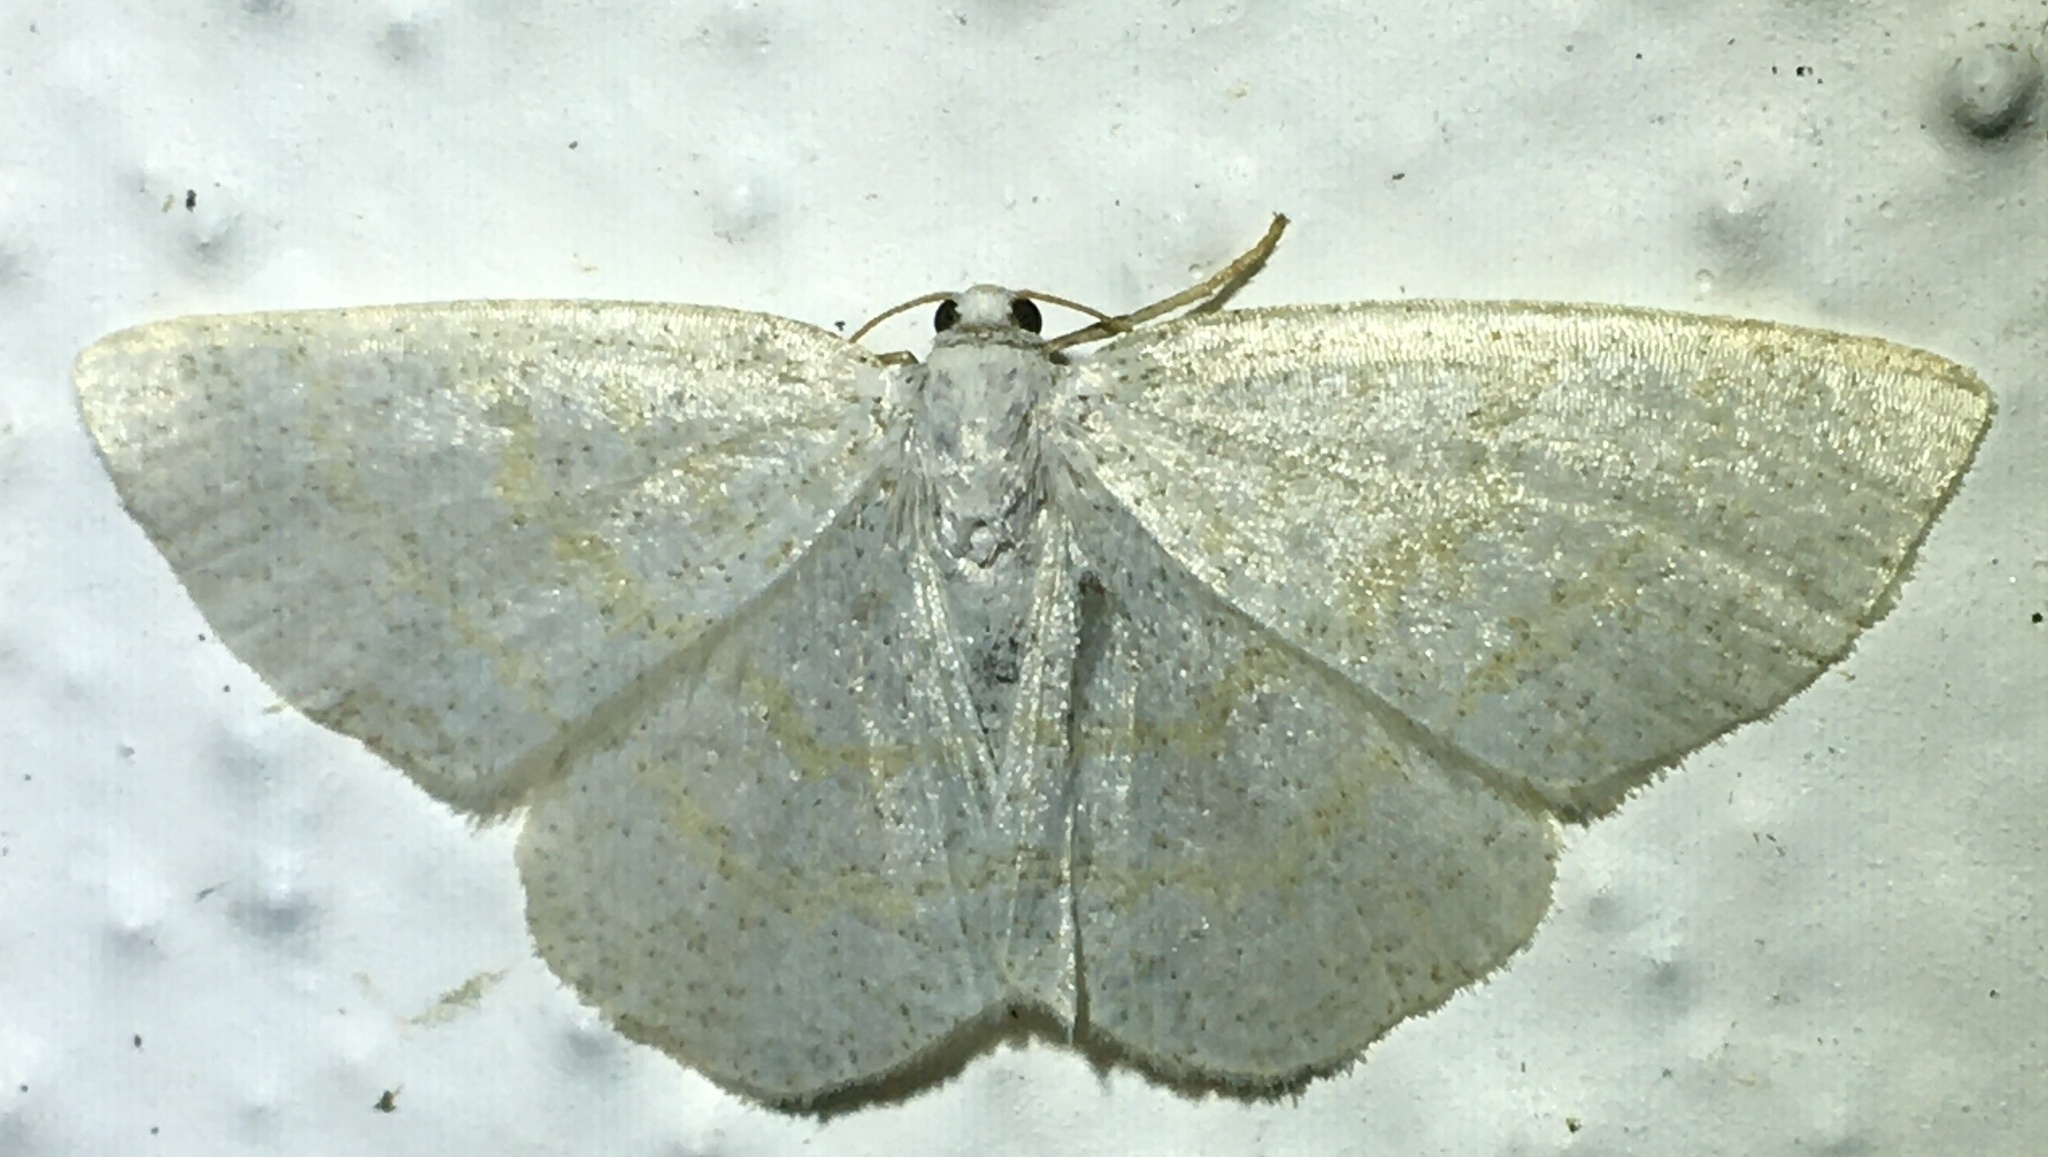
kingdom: Animalia
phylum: Arthropoda
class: Insecta
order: Lepidoptera
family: Geometridae
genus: Cabera
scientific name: Cabera exanthemata
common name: Common wave
